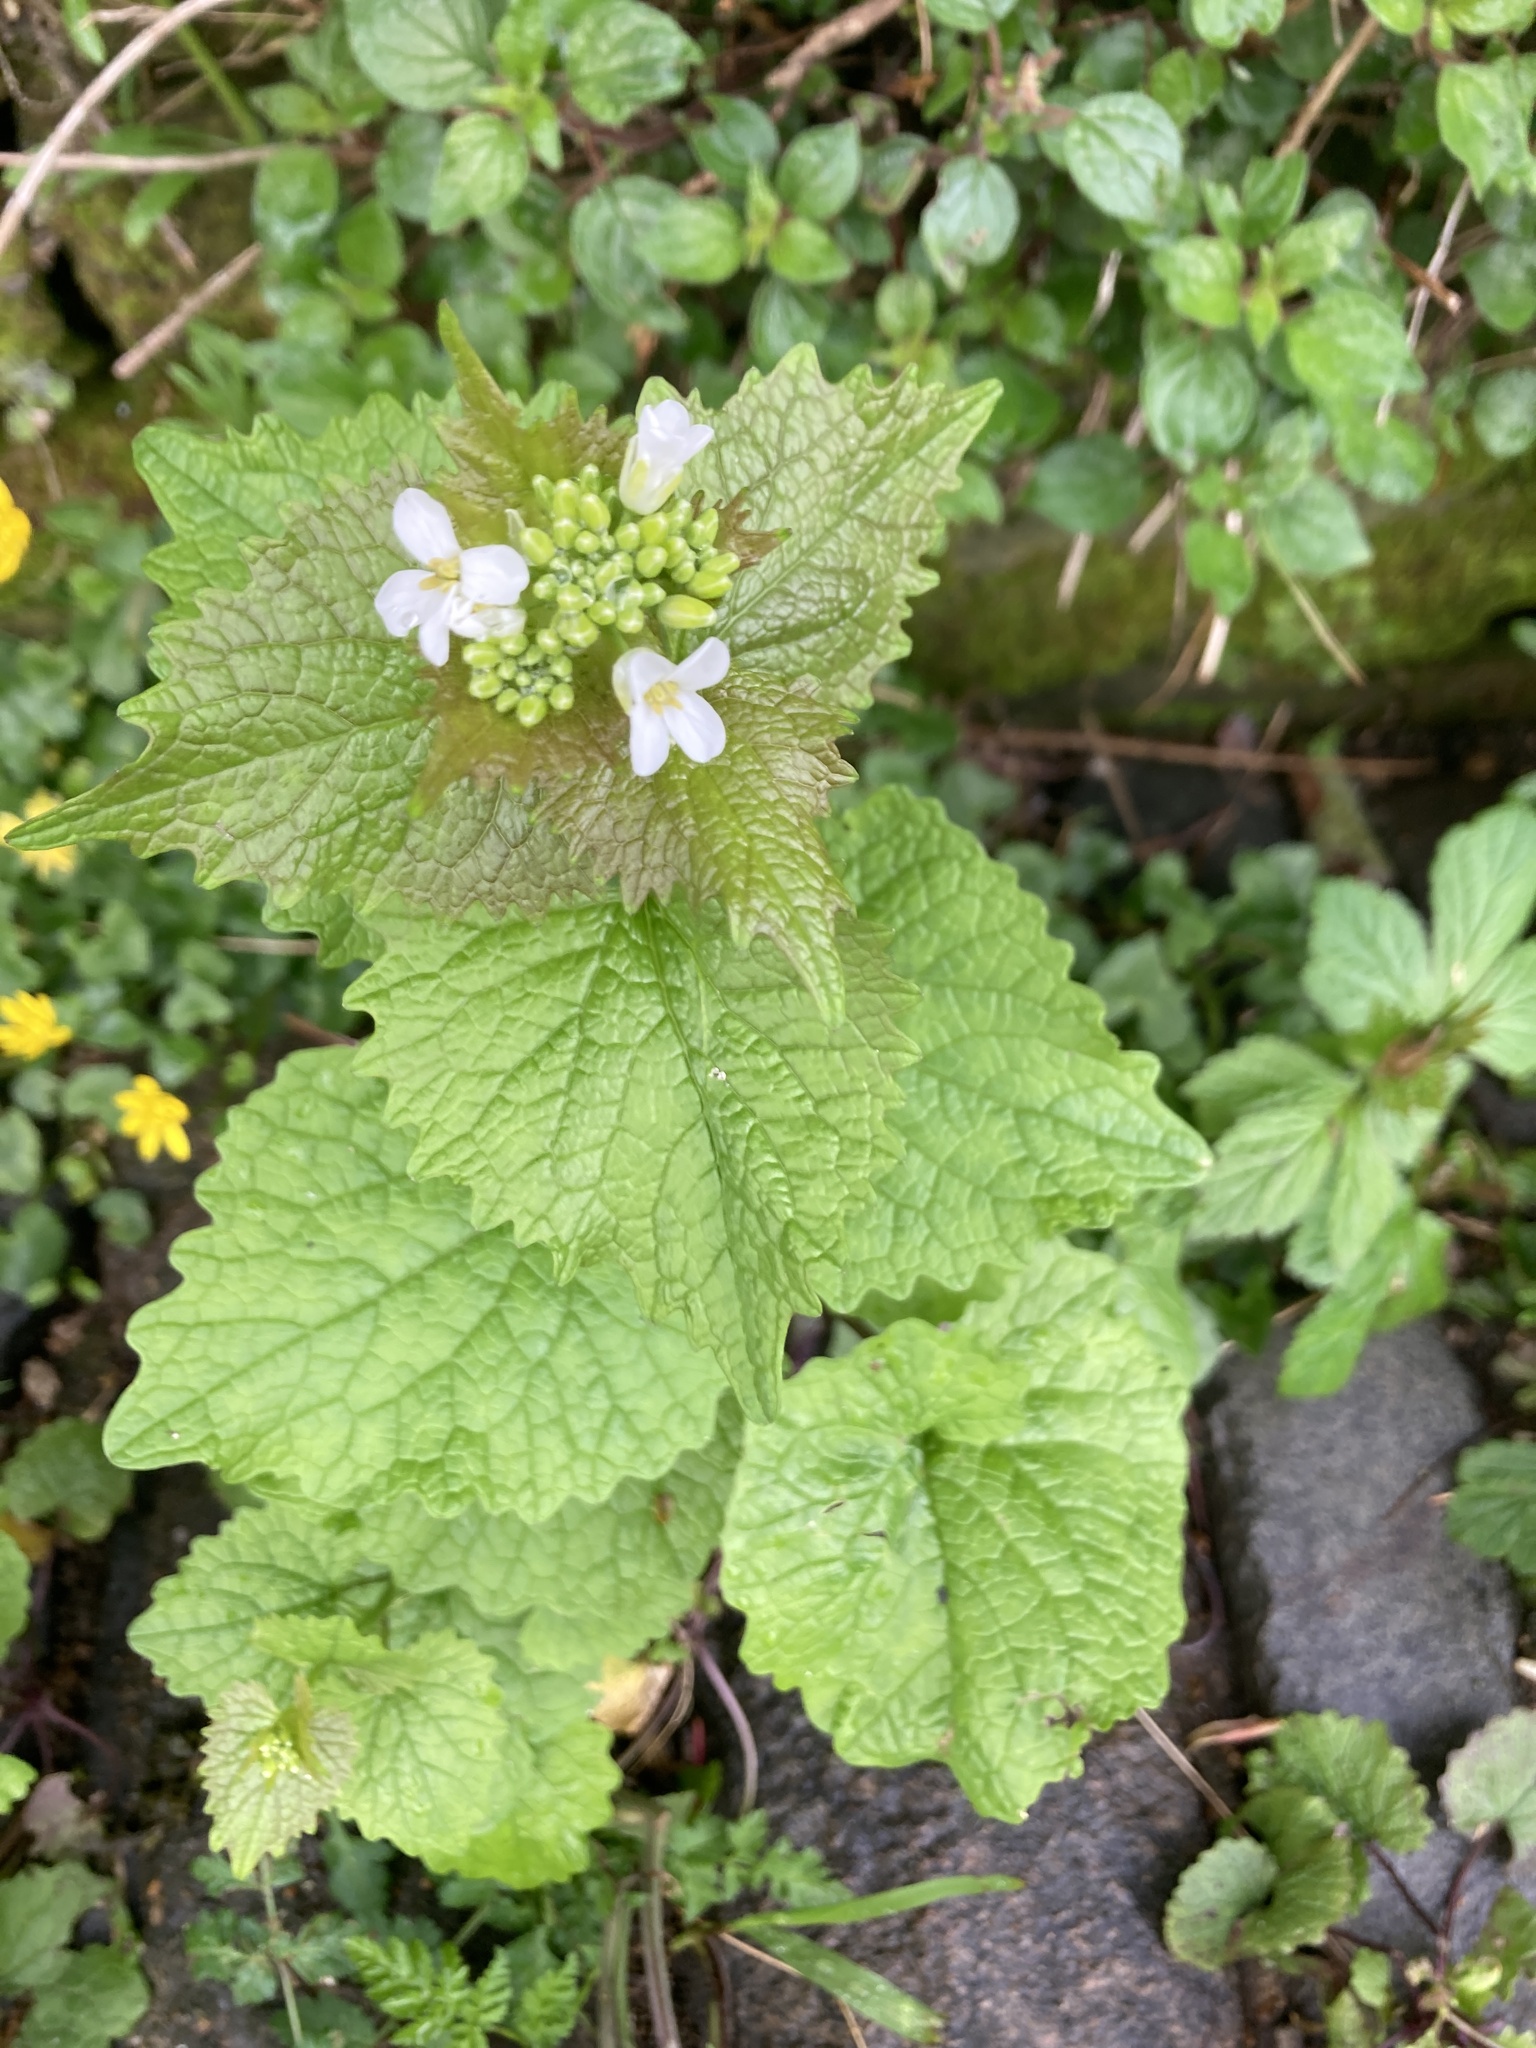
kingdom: Plantae
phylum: Tracheophyta
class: Magnoliopsida
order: Brassicales
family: Brassicaceae
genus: Alliaria
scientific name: Alliaria petiolata
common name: Garlic mustard
